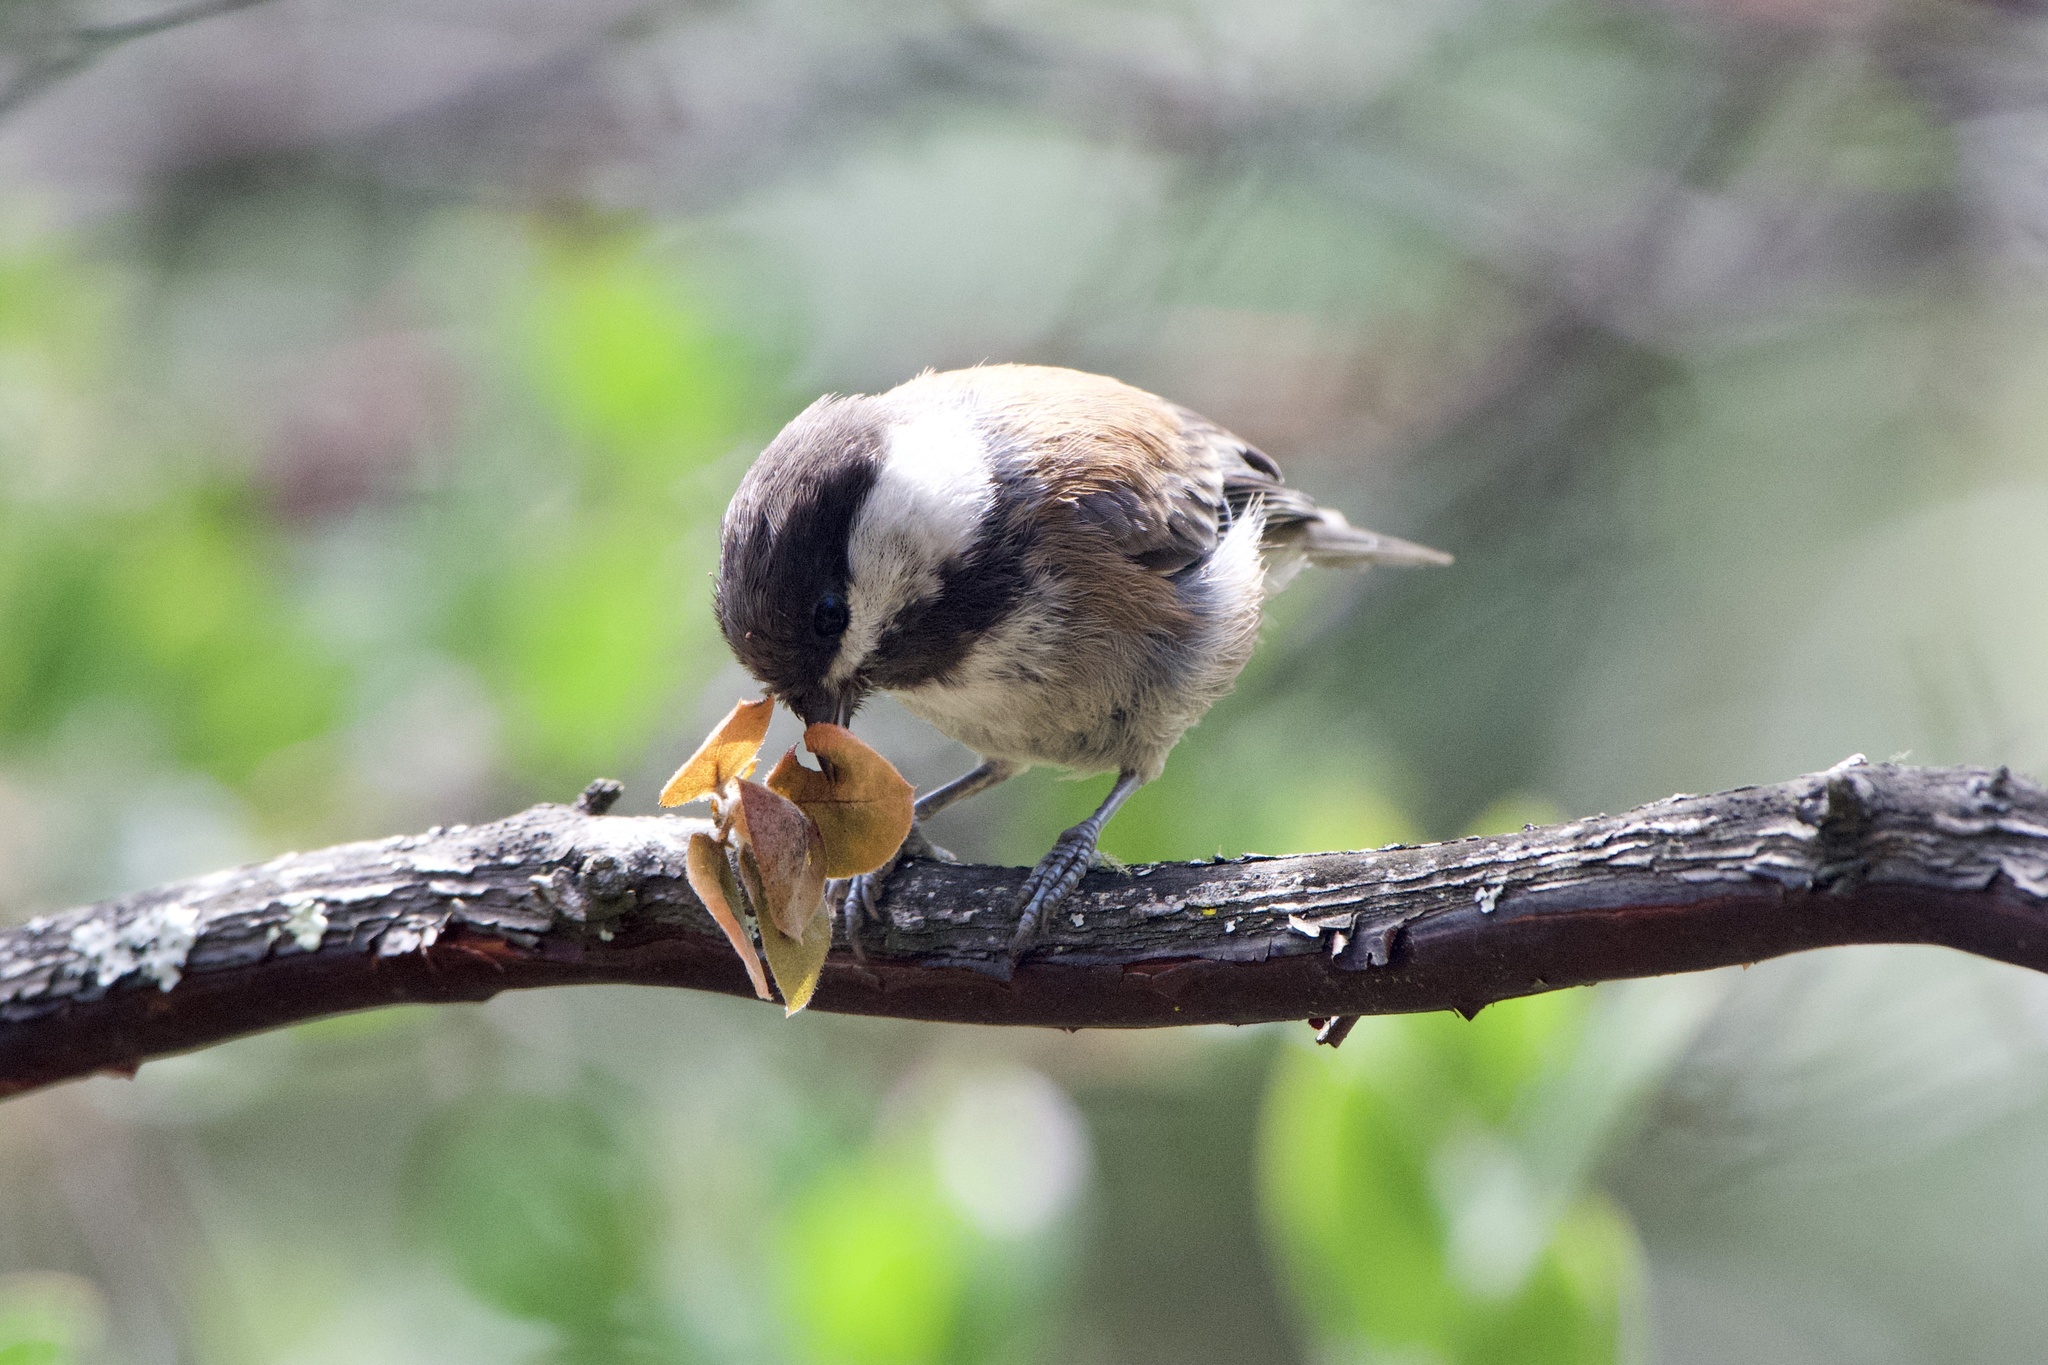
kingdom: Animalia
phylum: Chordata
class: Aves
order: Passeriformes
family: Paridae
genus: Poecile
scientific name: Poecile rufescens
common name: Chestnut-backed chickadee
